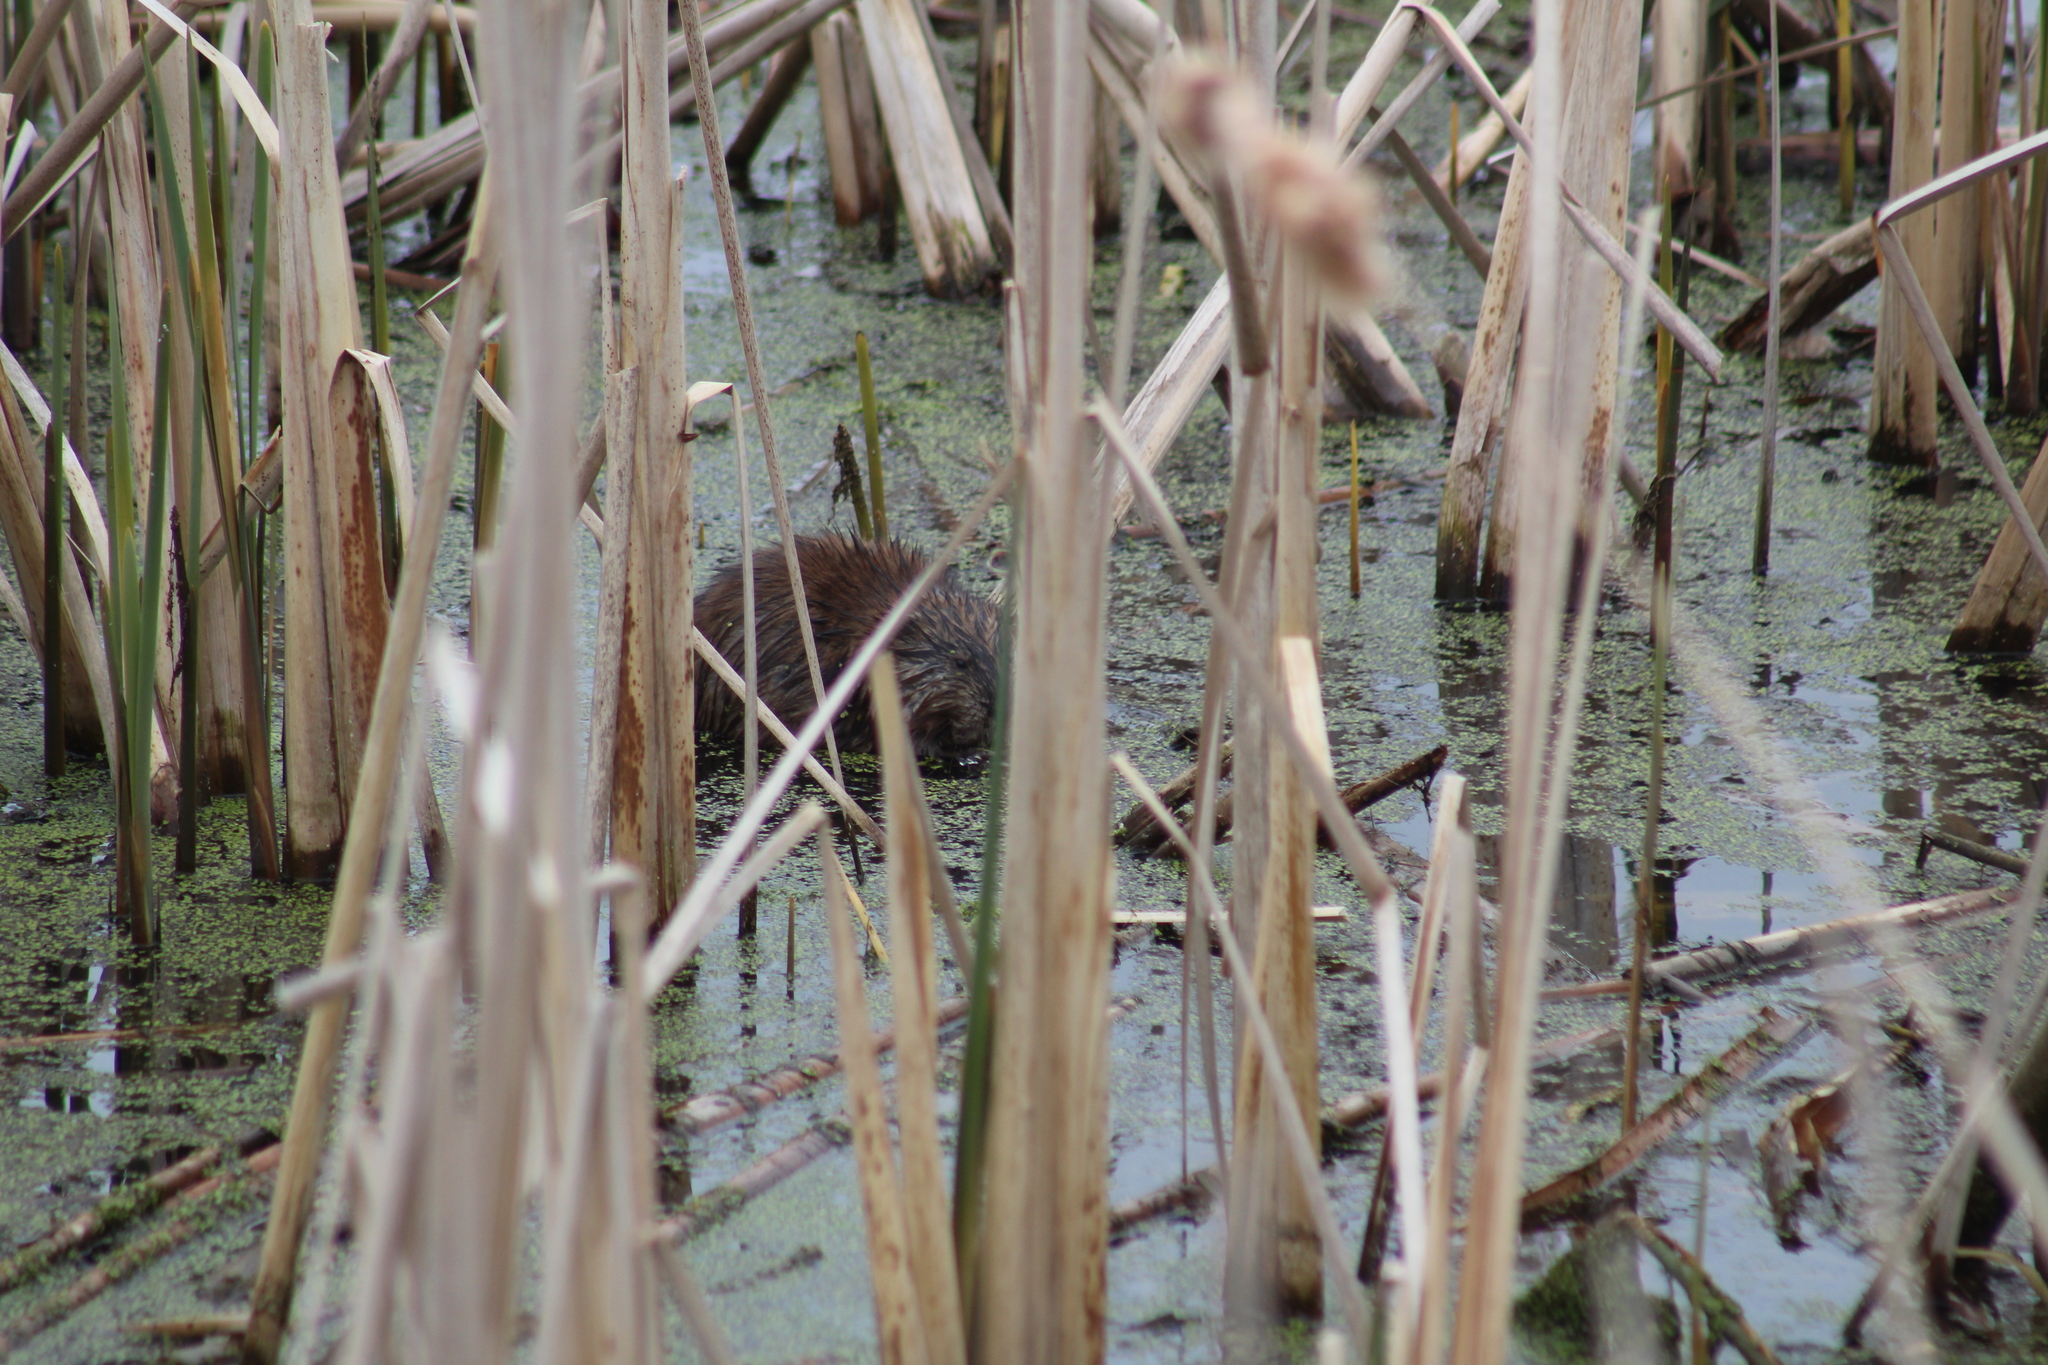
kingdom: Animalia
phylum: Chordata
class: Mammalia
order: Rodentia
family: Cricetidae
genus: Ondatra
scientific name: Ondatra zibethicus
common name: Muskrat
